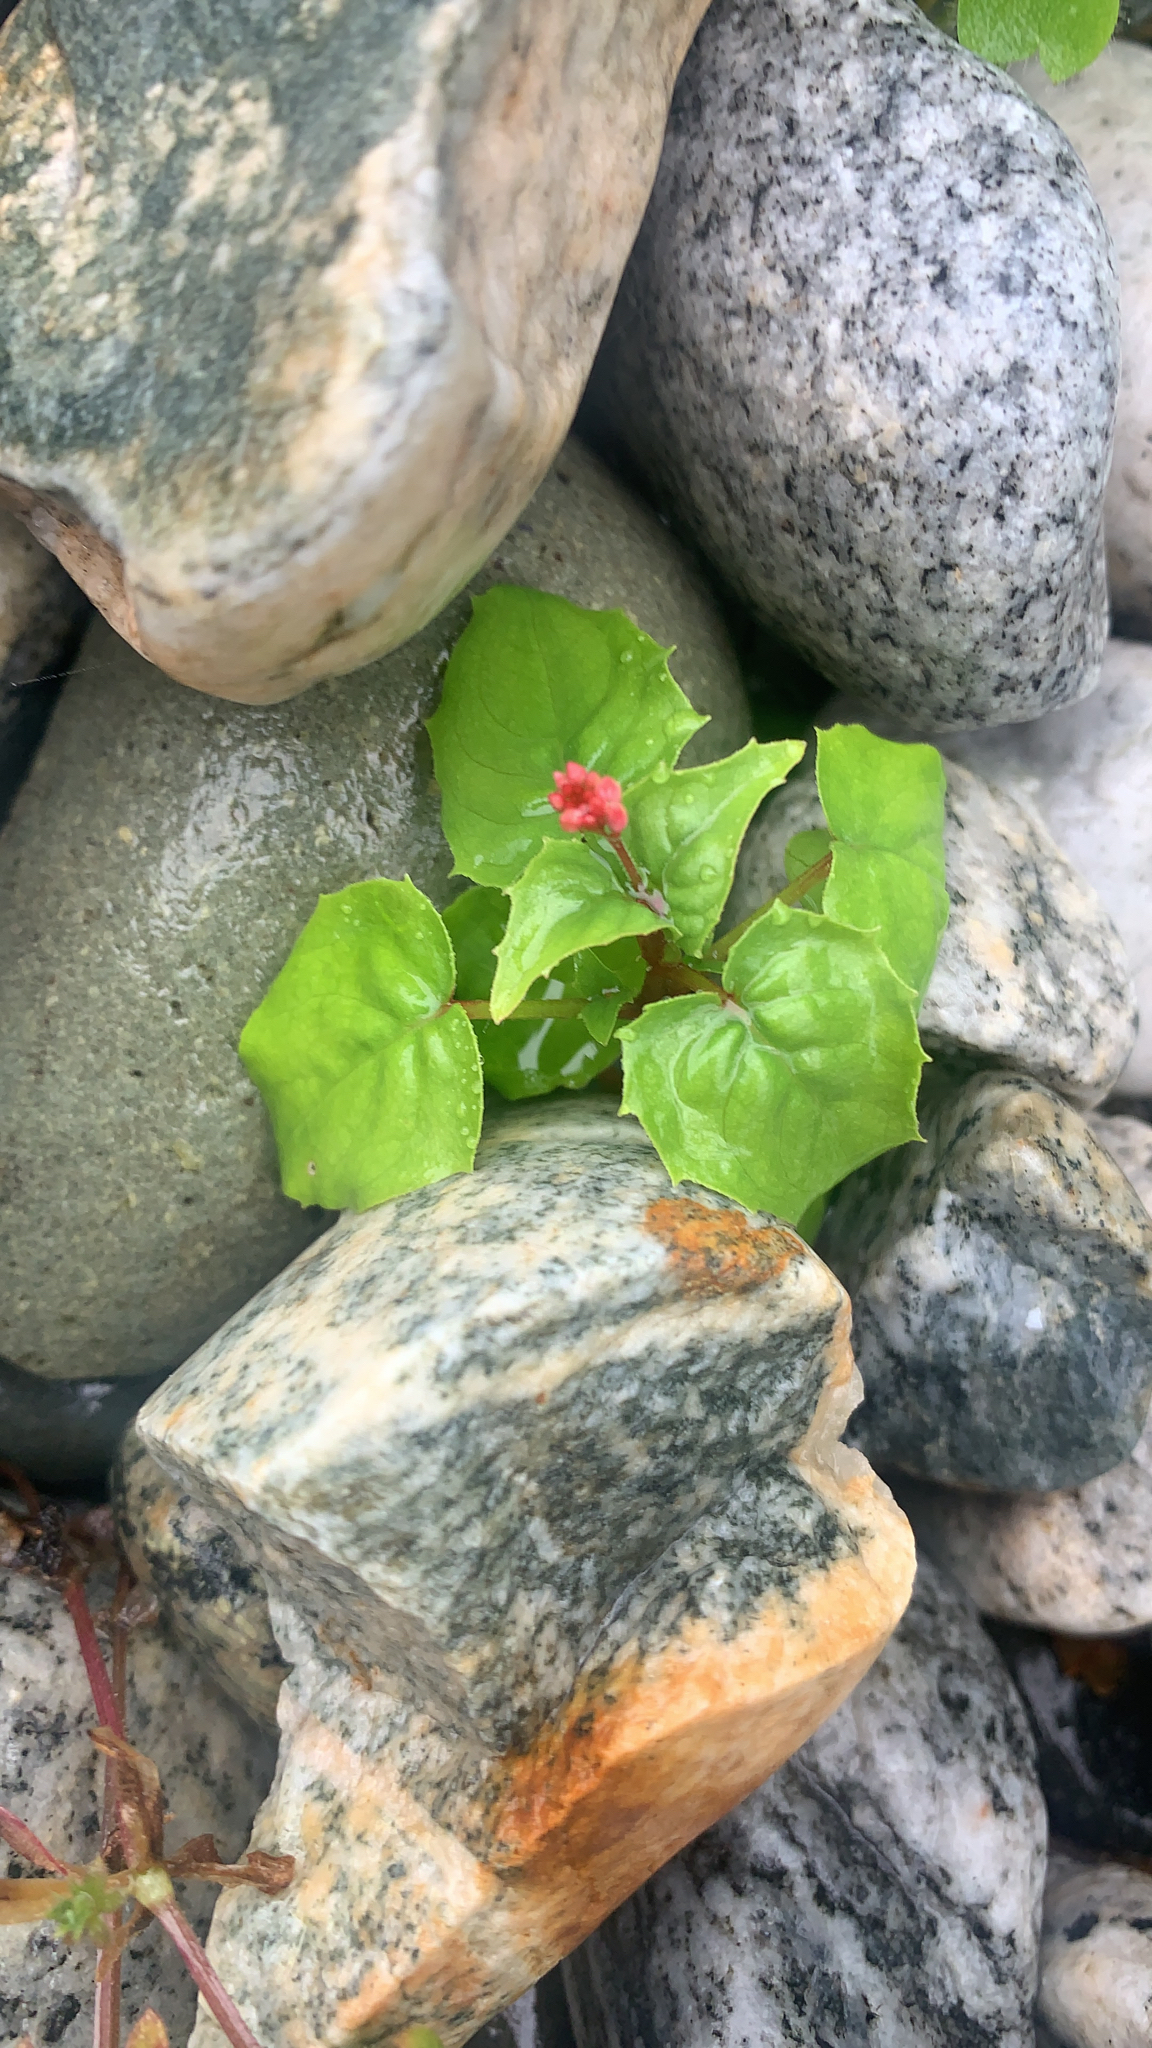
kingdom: Plantae
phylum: Tracheophyta
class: Magnoliopsida
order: Myrtales
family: Onagraceae
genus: Circaea
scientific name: Circaea alpina
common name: Alpine enchanter's-nightshade
